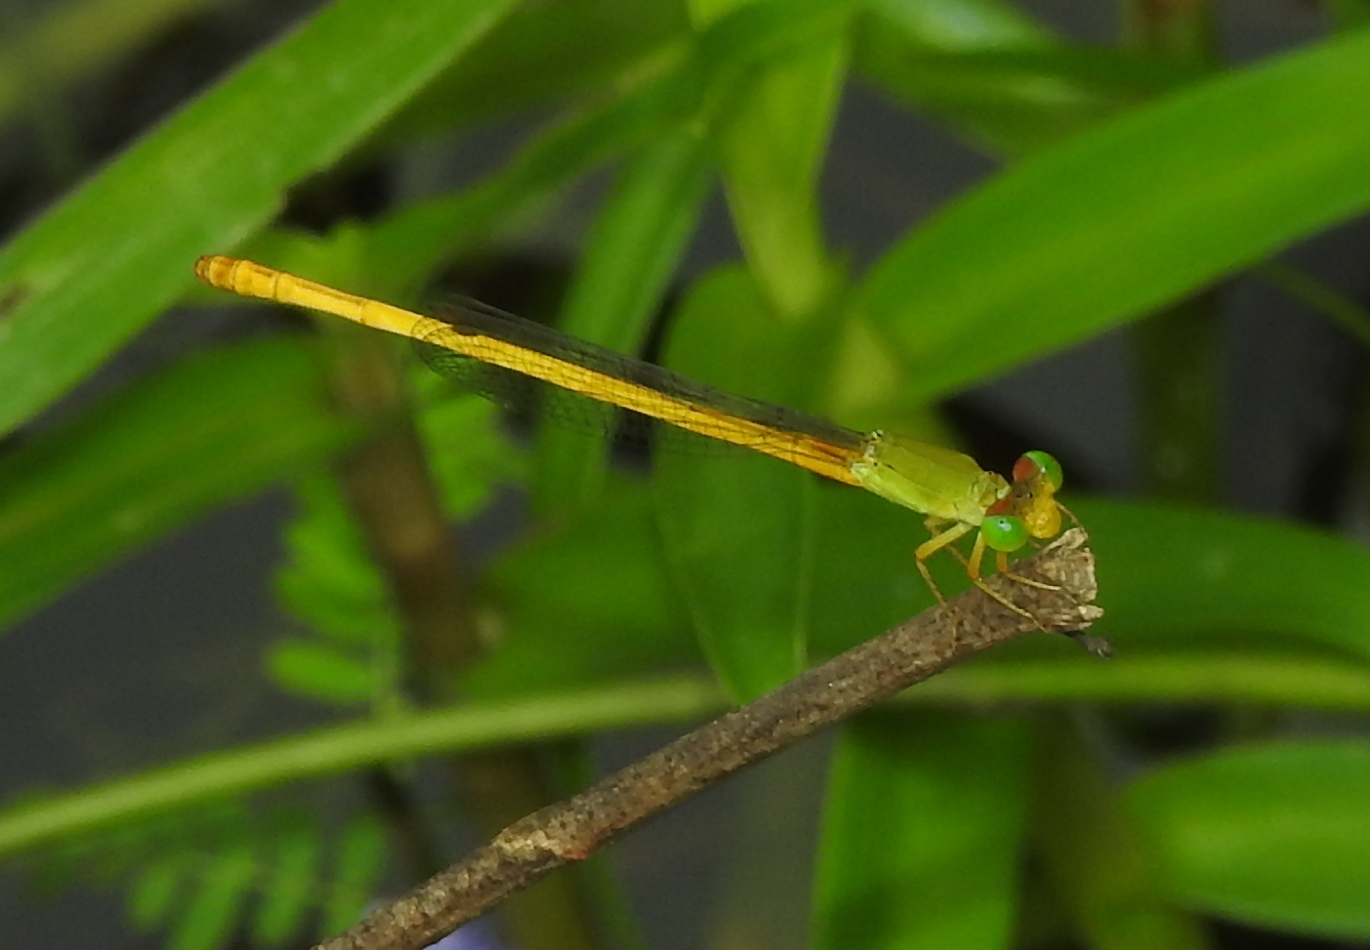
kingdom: Animalia
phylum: Arthropoda
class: Insecta
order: Odonata
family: Coenagrionidae
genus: Ceriagrion
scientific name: Ceriagrion coromandelianum
